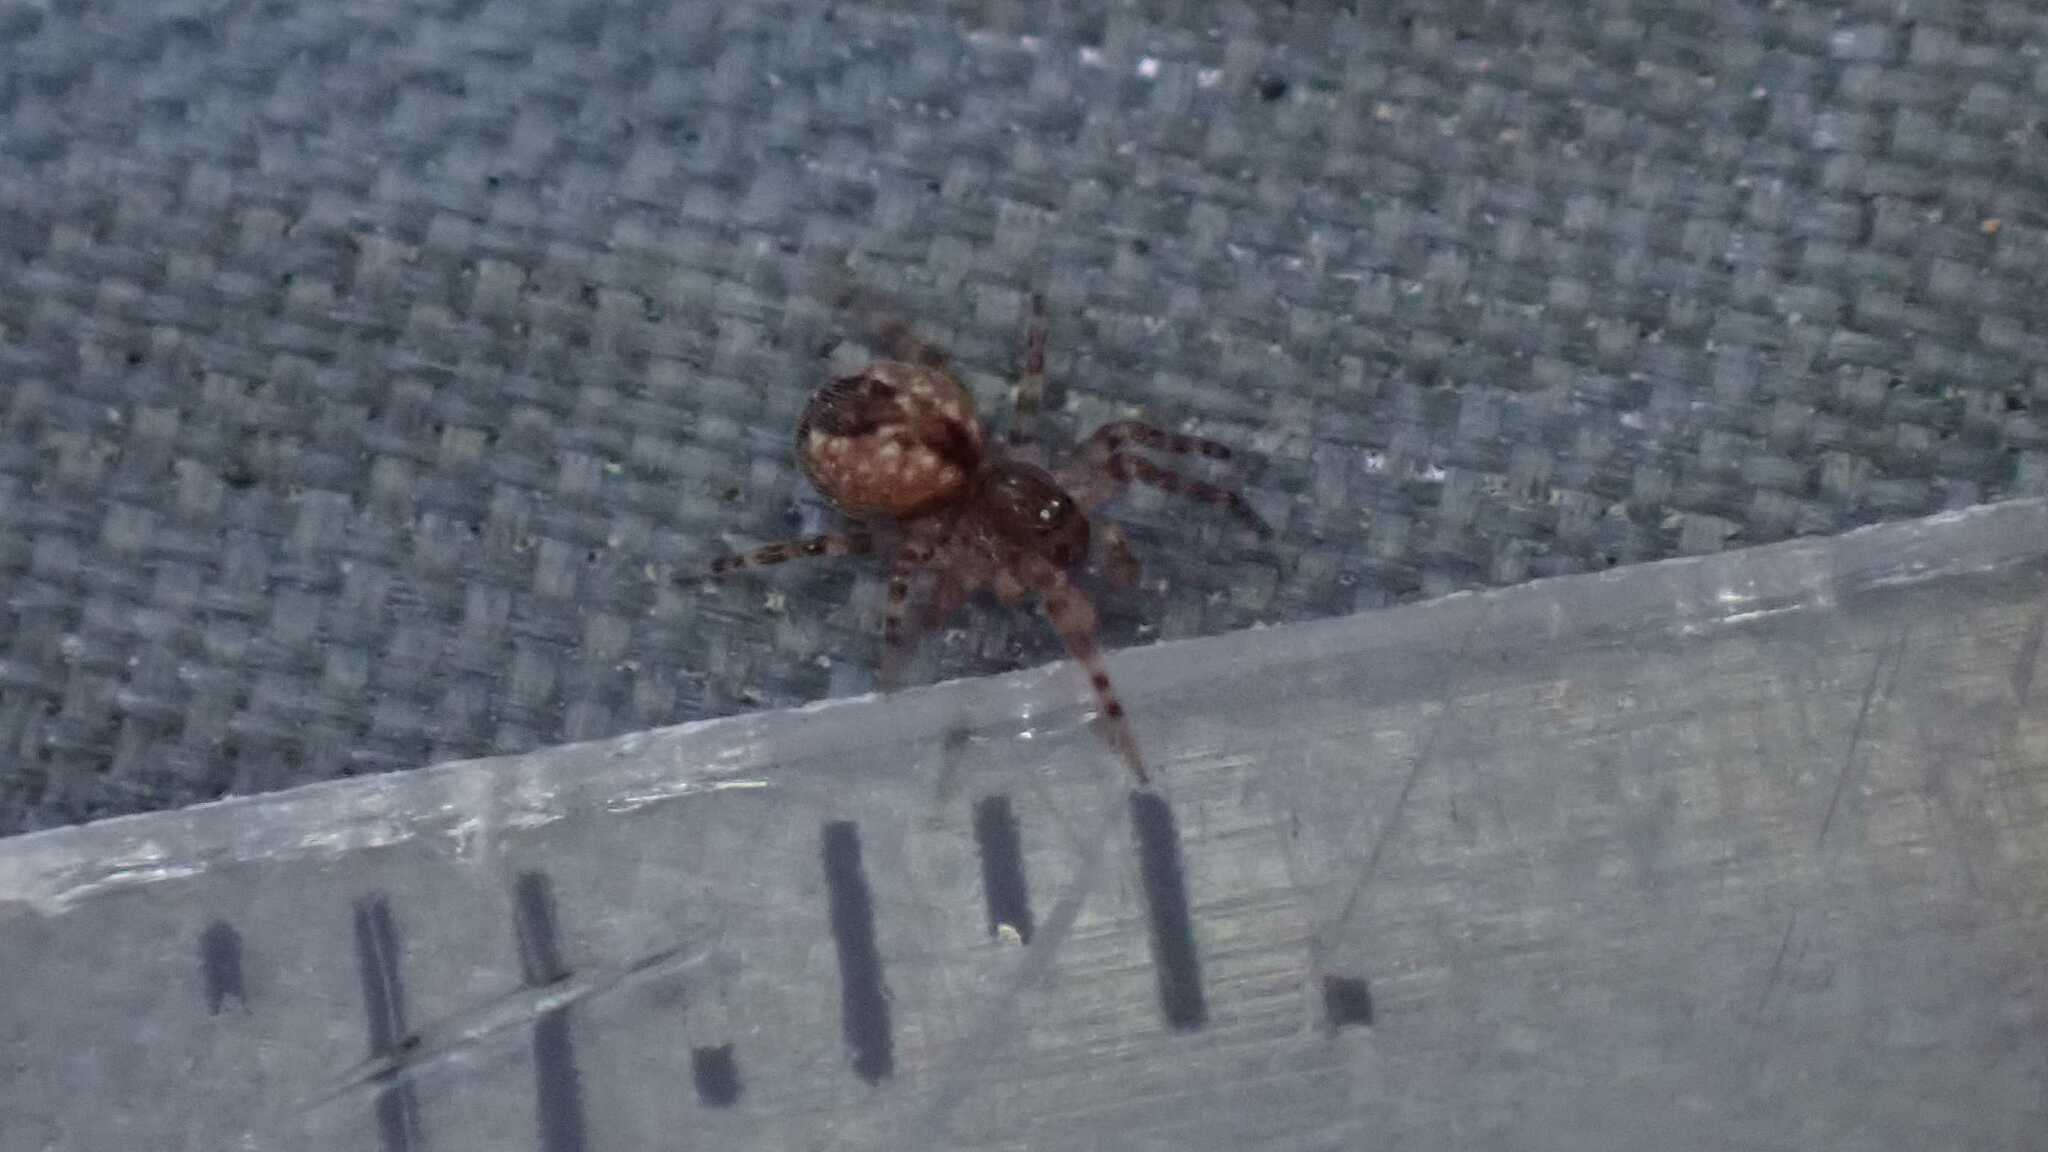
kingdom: Animalia
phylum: Arthropoda
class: Arachnida
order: Araneae
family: Dictynidae
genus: Lathys
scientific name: Lathys humilis
